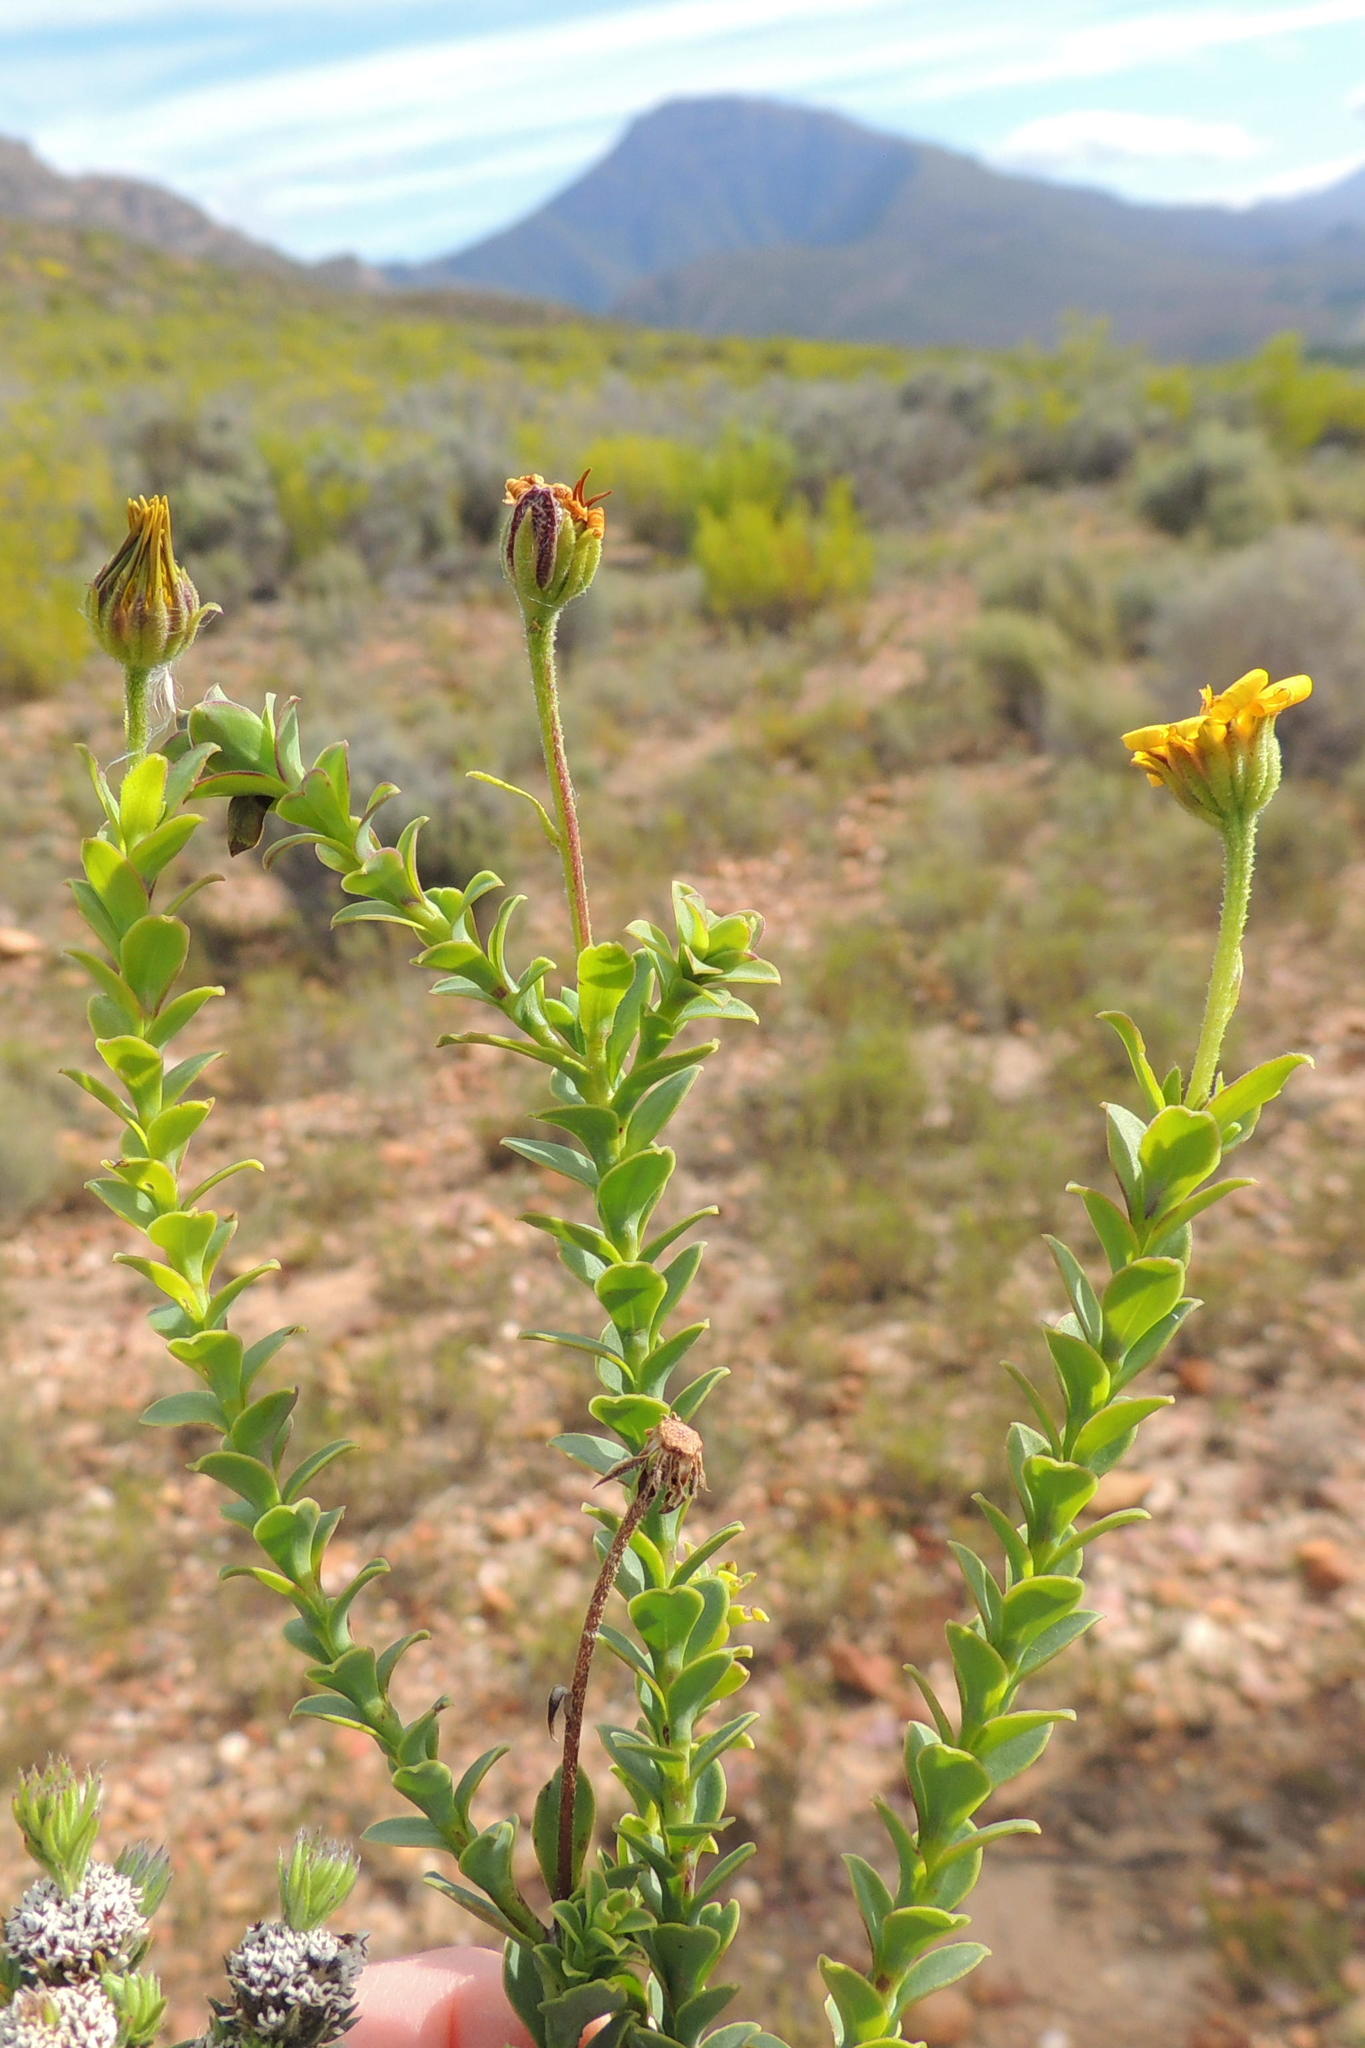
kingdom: Plantae
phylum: Tracheophyta
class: Magnoliopsida
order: Asterales
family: Asteraceae
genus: Osteospermum
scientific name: Osteospermum polygaloides
